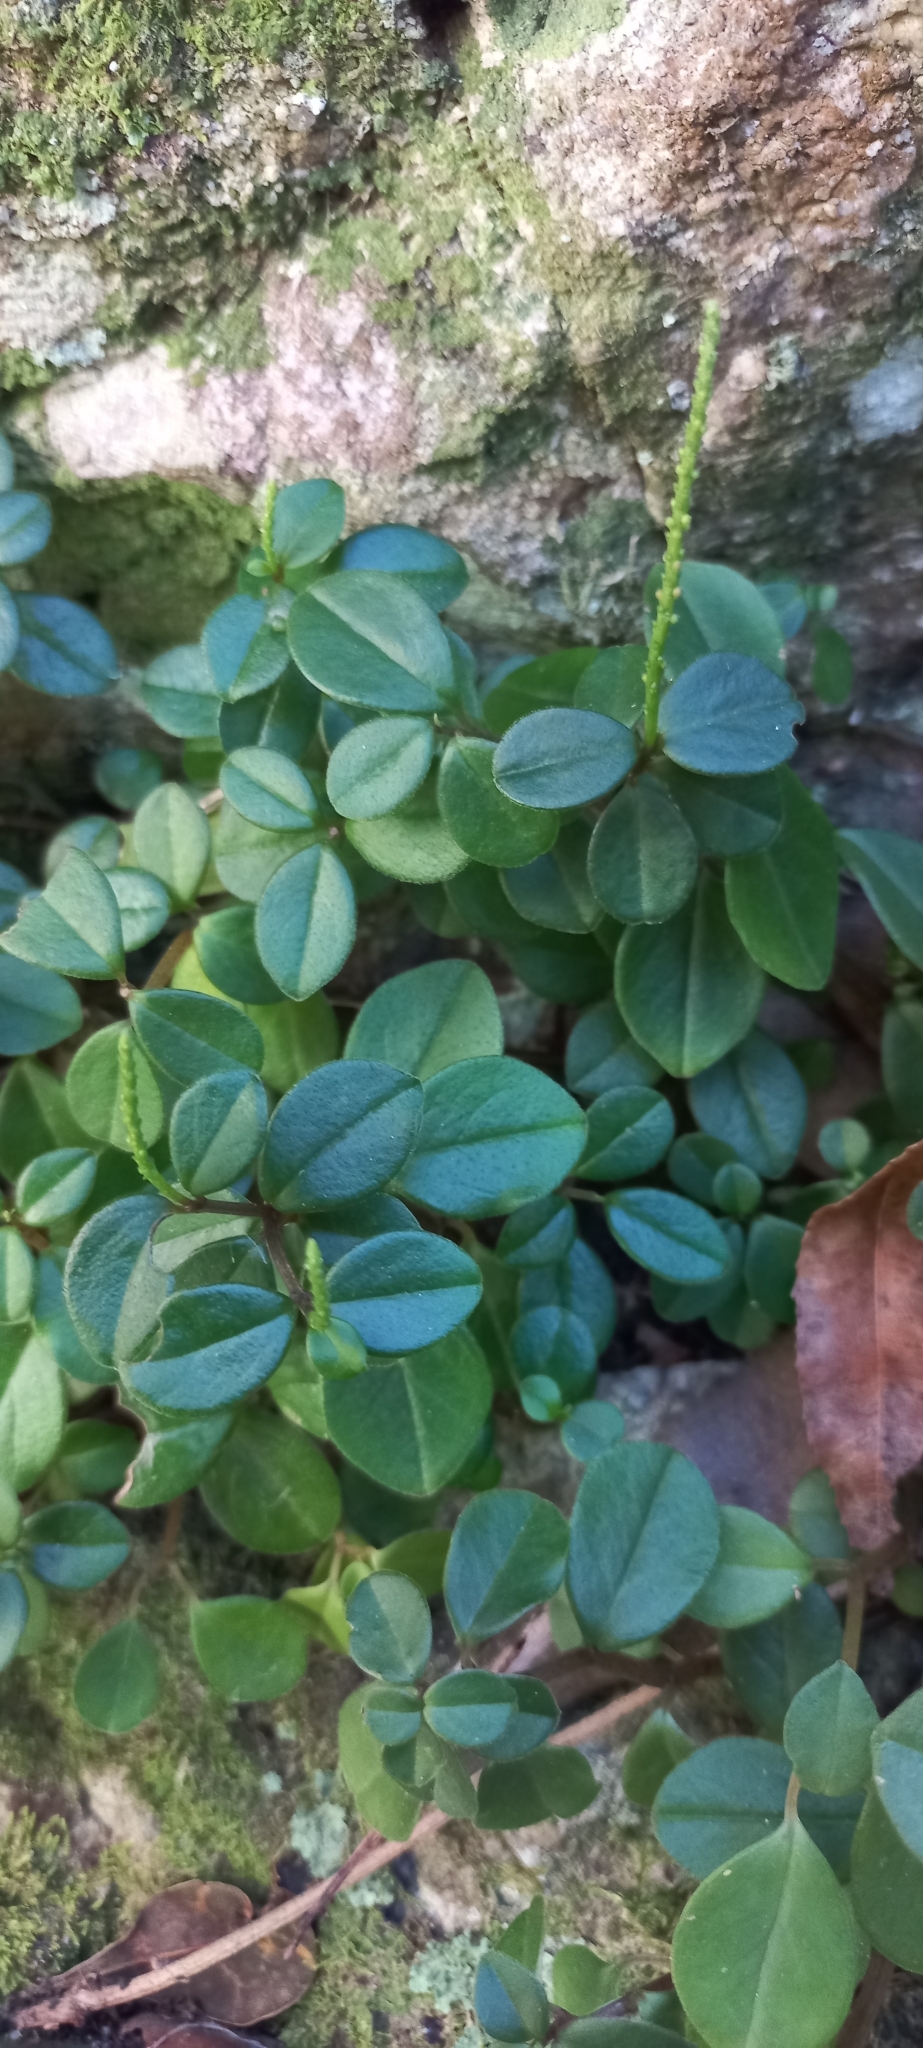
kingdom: Plantae
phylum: Tracheophyta
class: Magnoliopsida
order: Piperales
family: Piperaceae
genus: Peperomia
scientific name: Peperomia retusa
